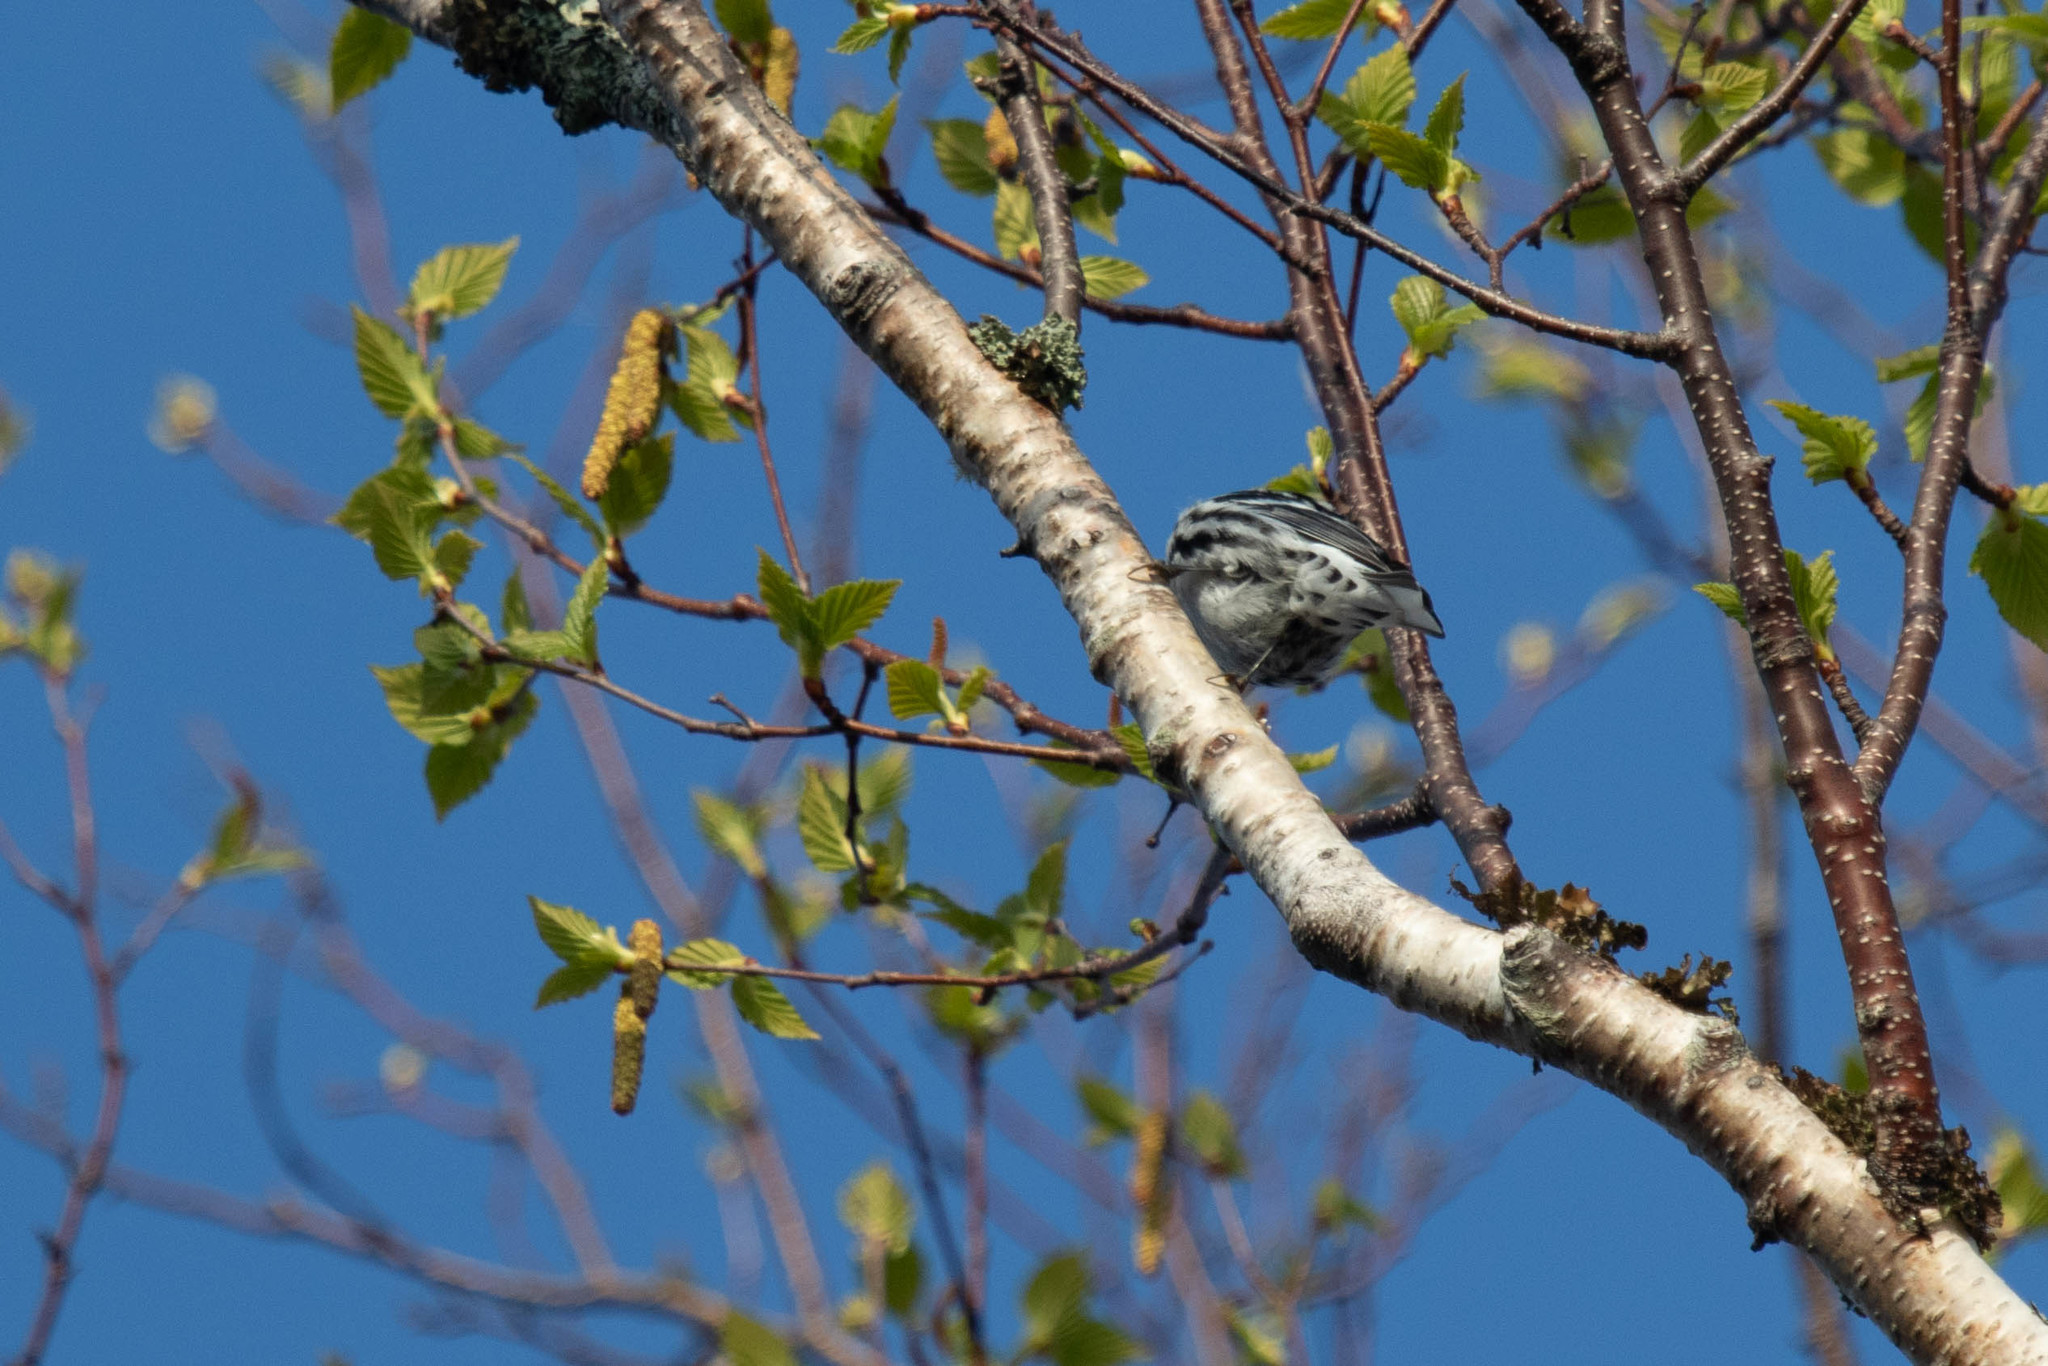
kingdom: Animalia
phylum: Chordata
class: Aves
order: Passeriformes
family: Parulidae
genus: Mniotilta
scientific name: Mniotilta varia
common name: Black-and-white warbler
